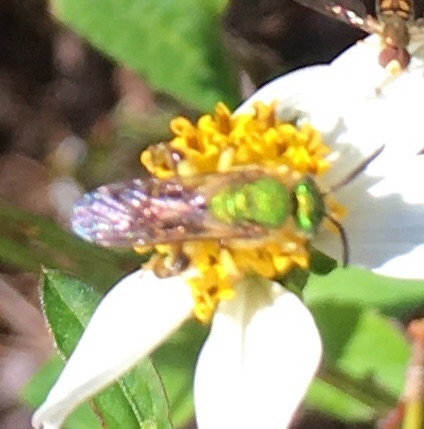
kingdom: Animalia
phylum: Arthropoda
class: Insecta
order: Hymenoptera
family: Halictidae
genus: Agapostemon
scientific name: Agapostemon splendens
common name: Brown-winged striped sweat bee
